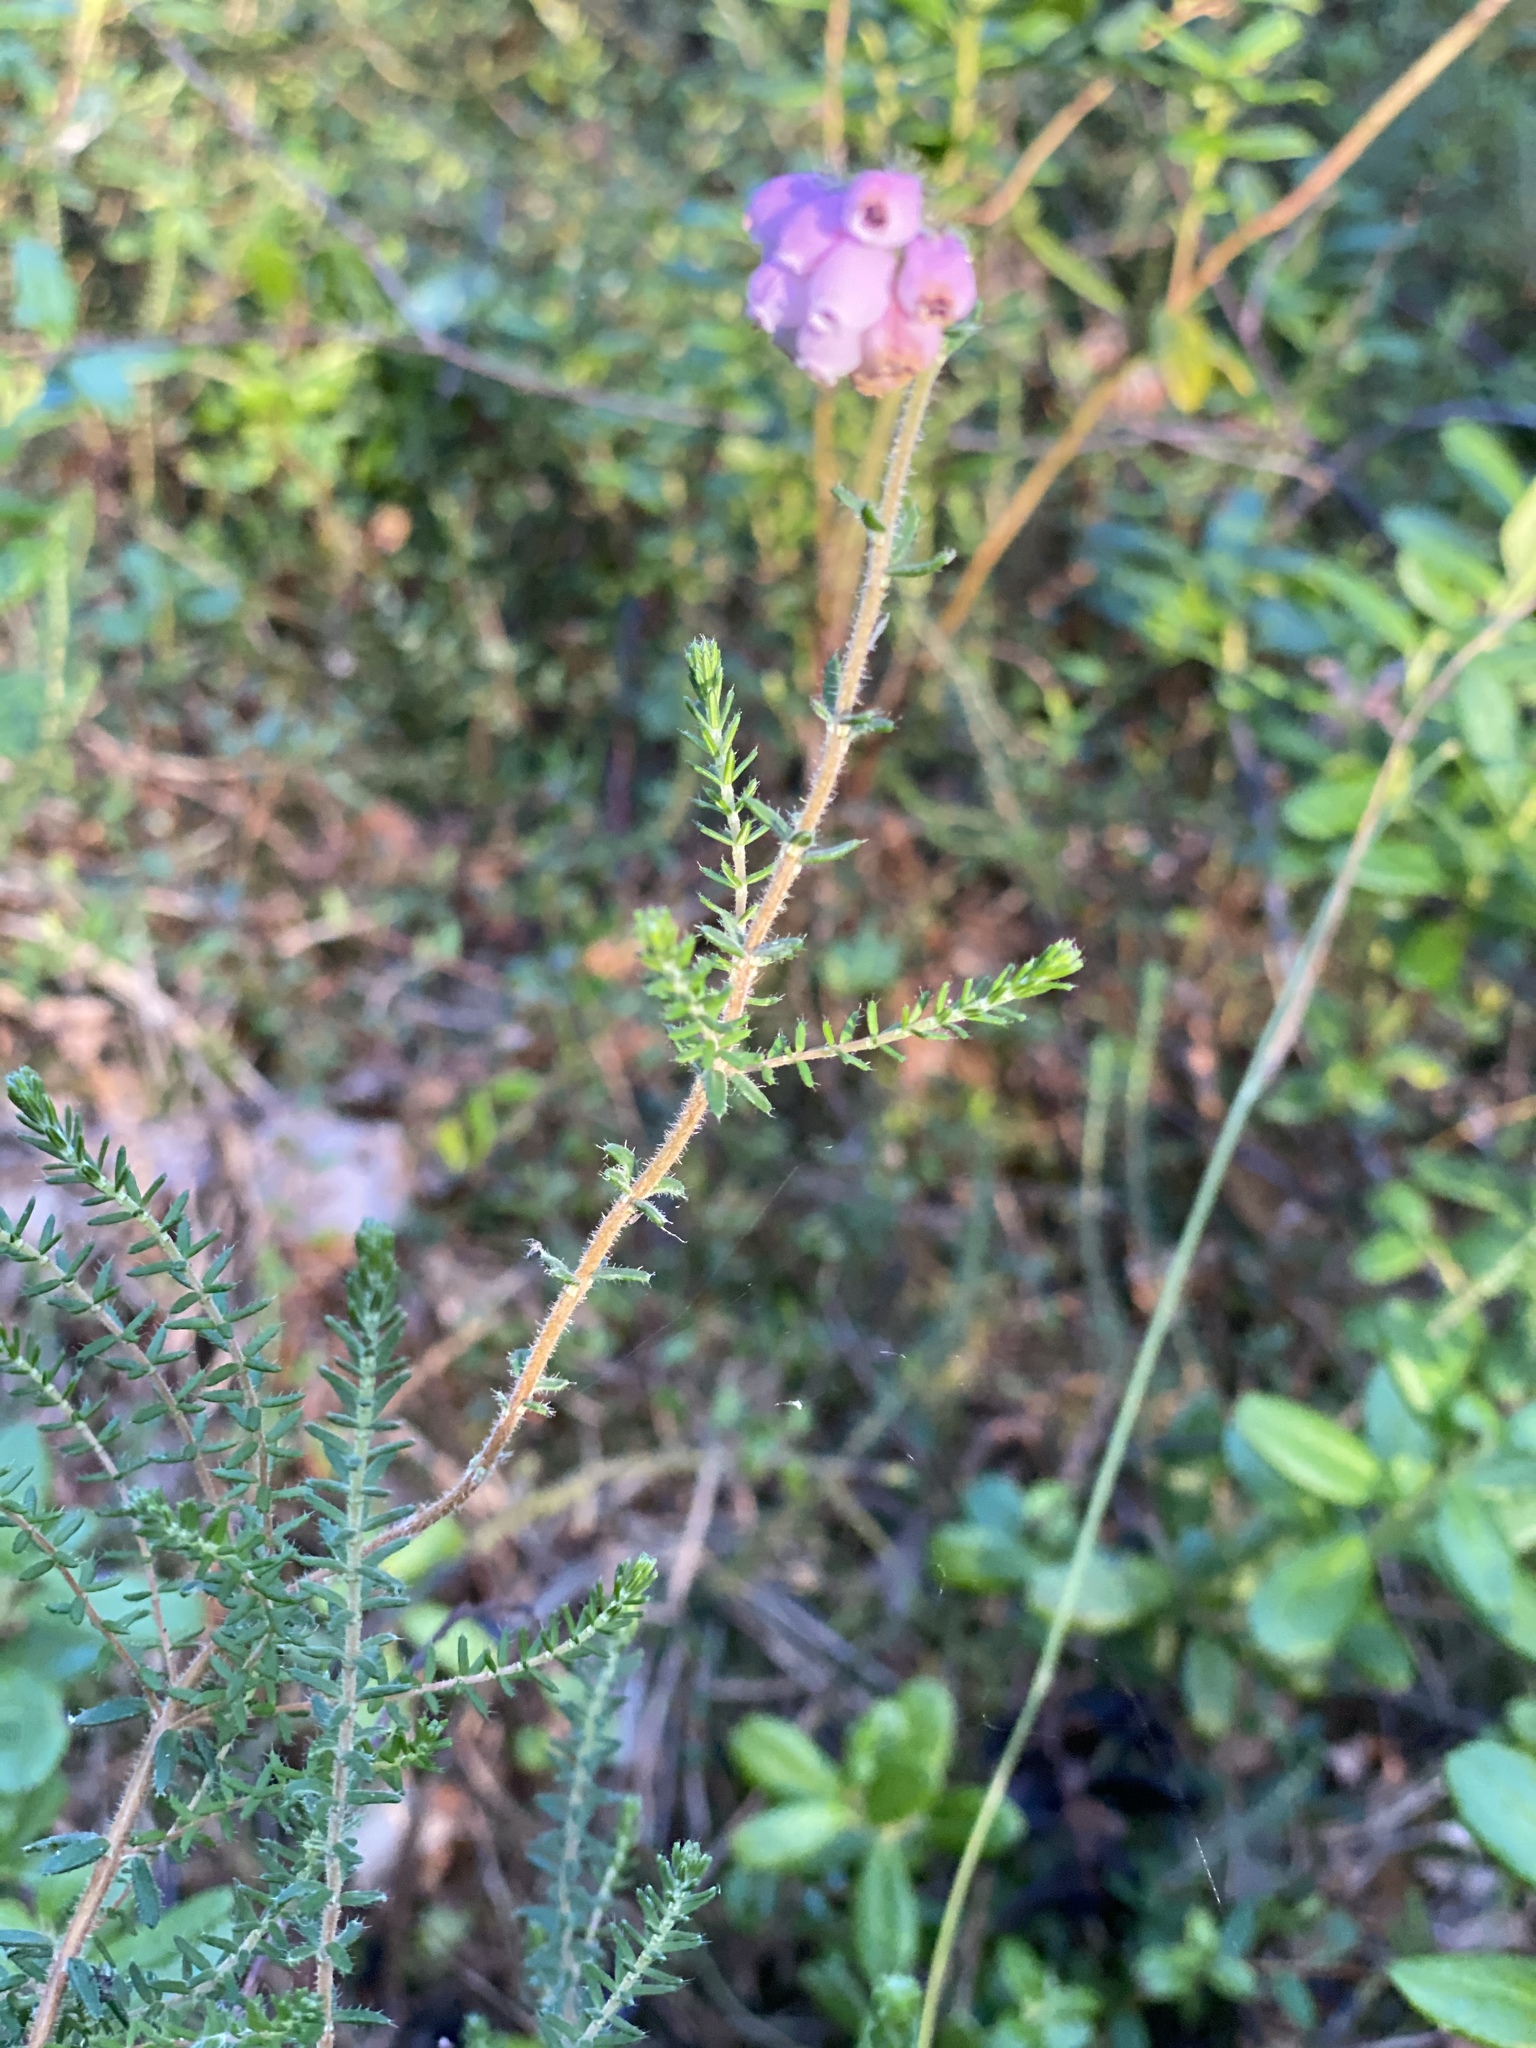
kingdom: Plantae
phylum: Tracheophyta
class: Magnoliopsida
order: Ericales
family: Ericaceae
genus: Erica
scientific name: Erica tetralix
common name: Cross-leaved heath
